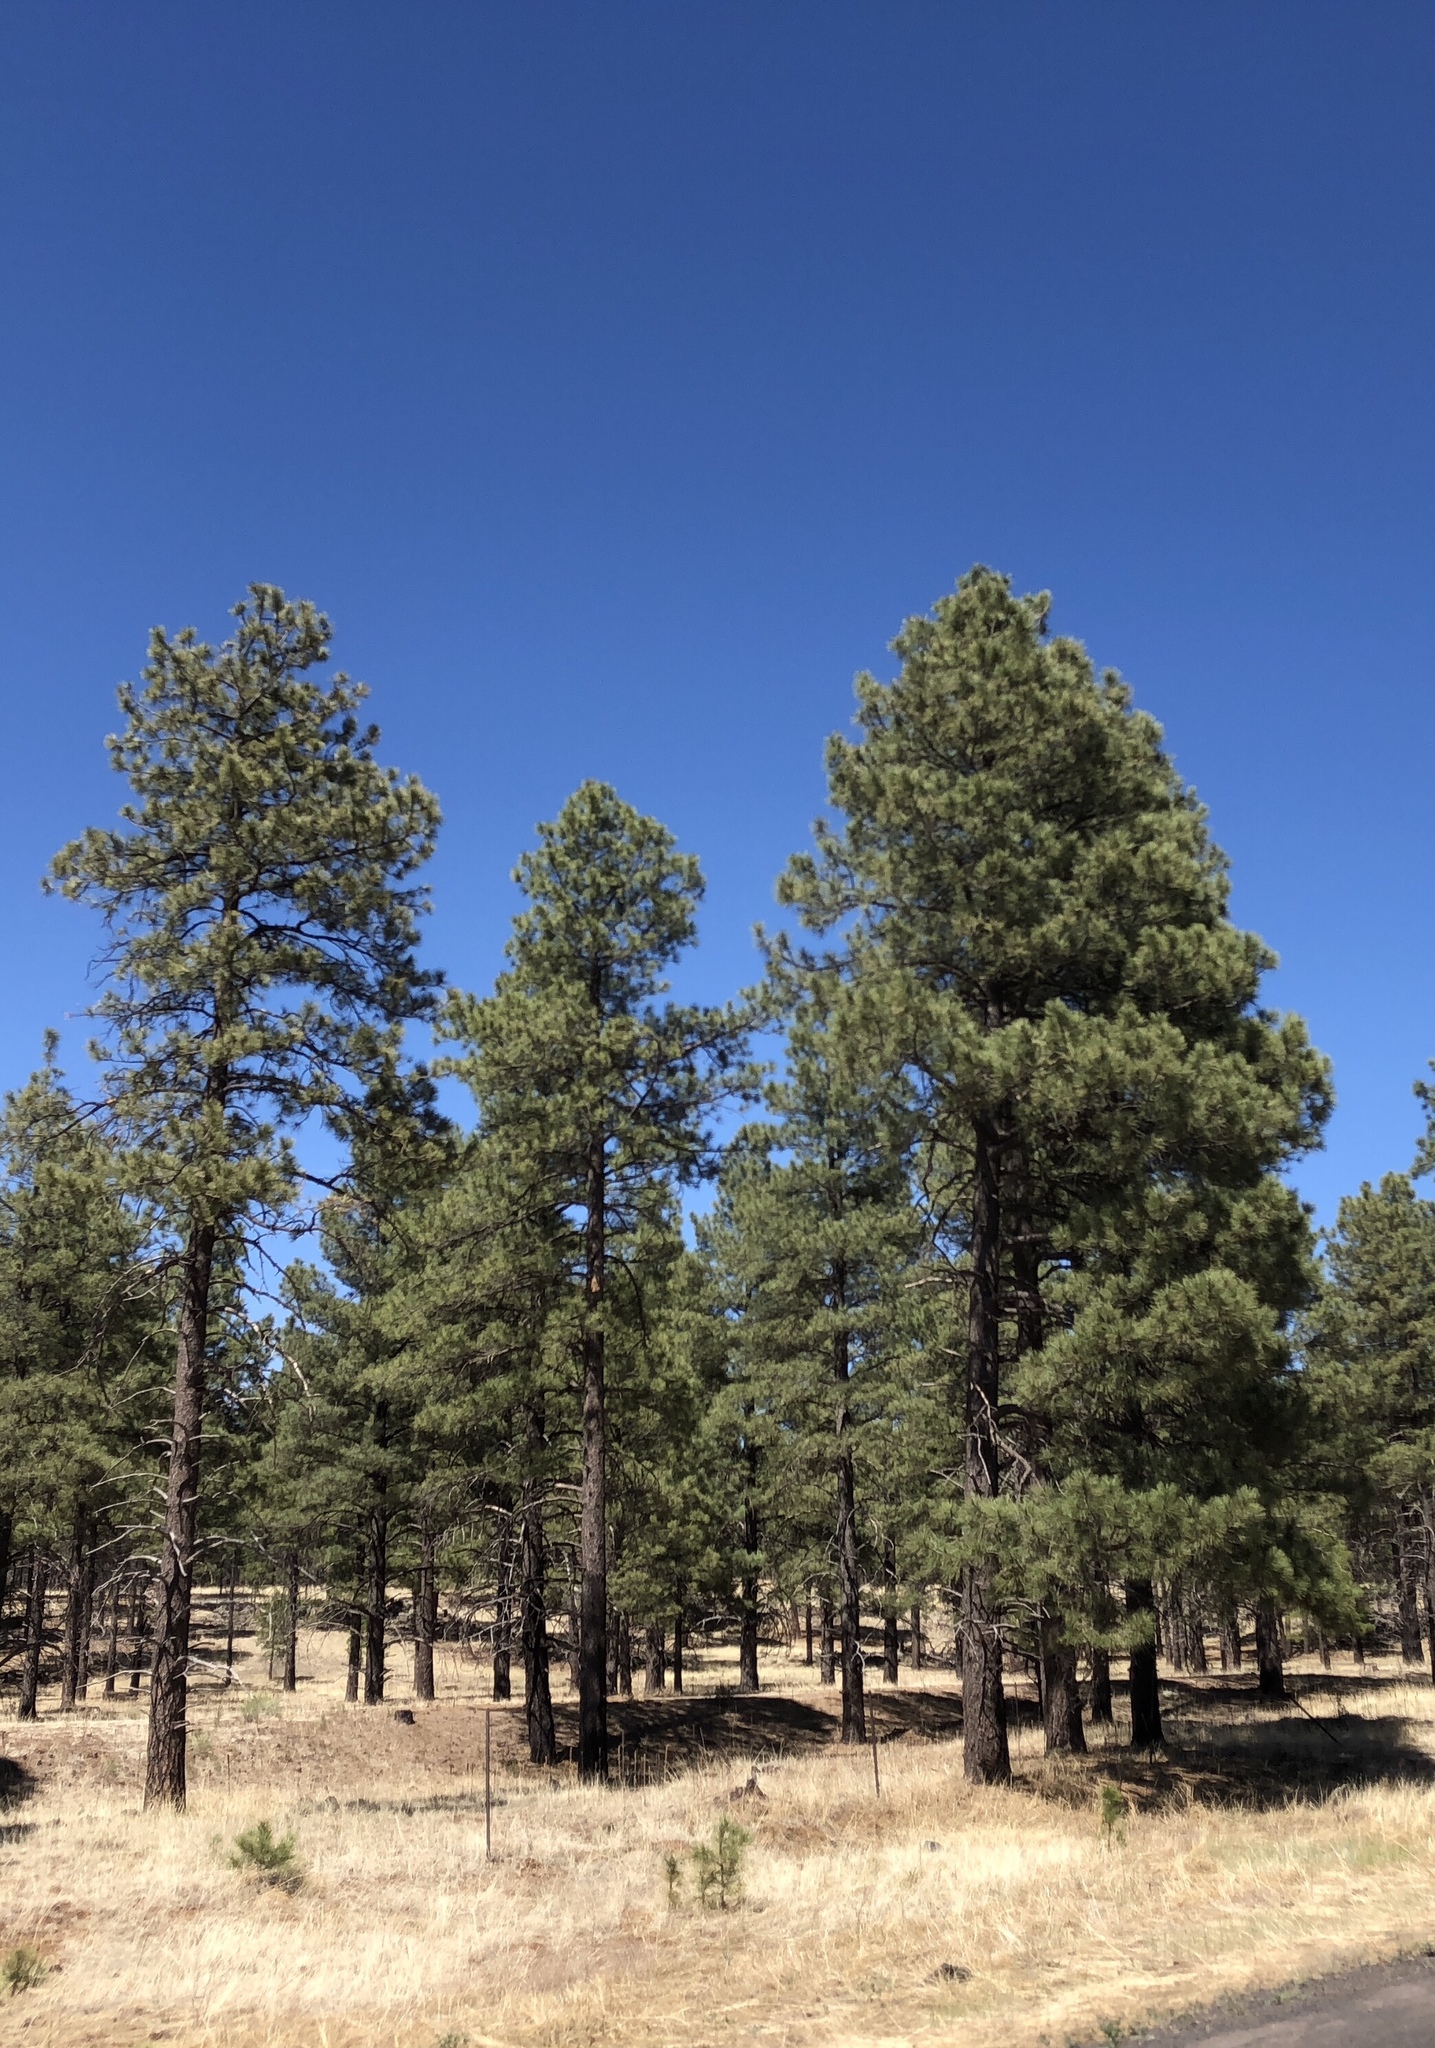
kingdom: Plantae
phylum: Tracheophyta
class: Pinopsida
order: Pinales
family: Pinaceae
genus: Pinus
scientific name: Pinus ponderosa
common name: Western yellow-pine
